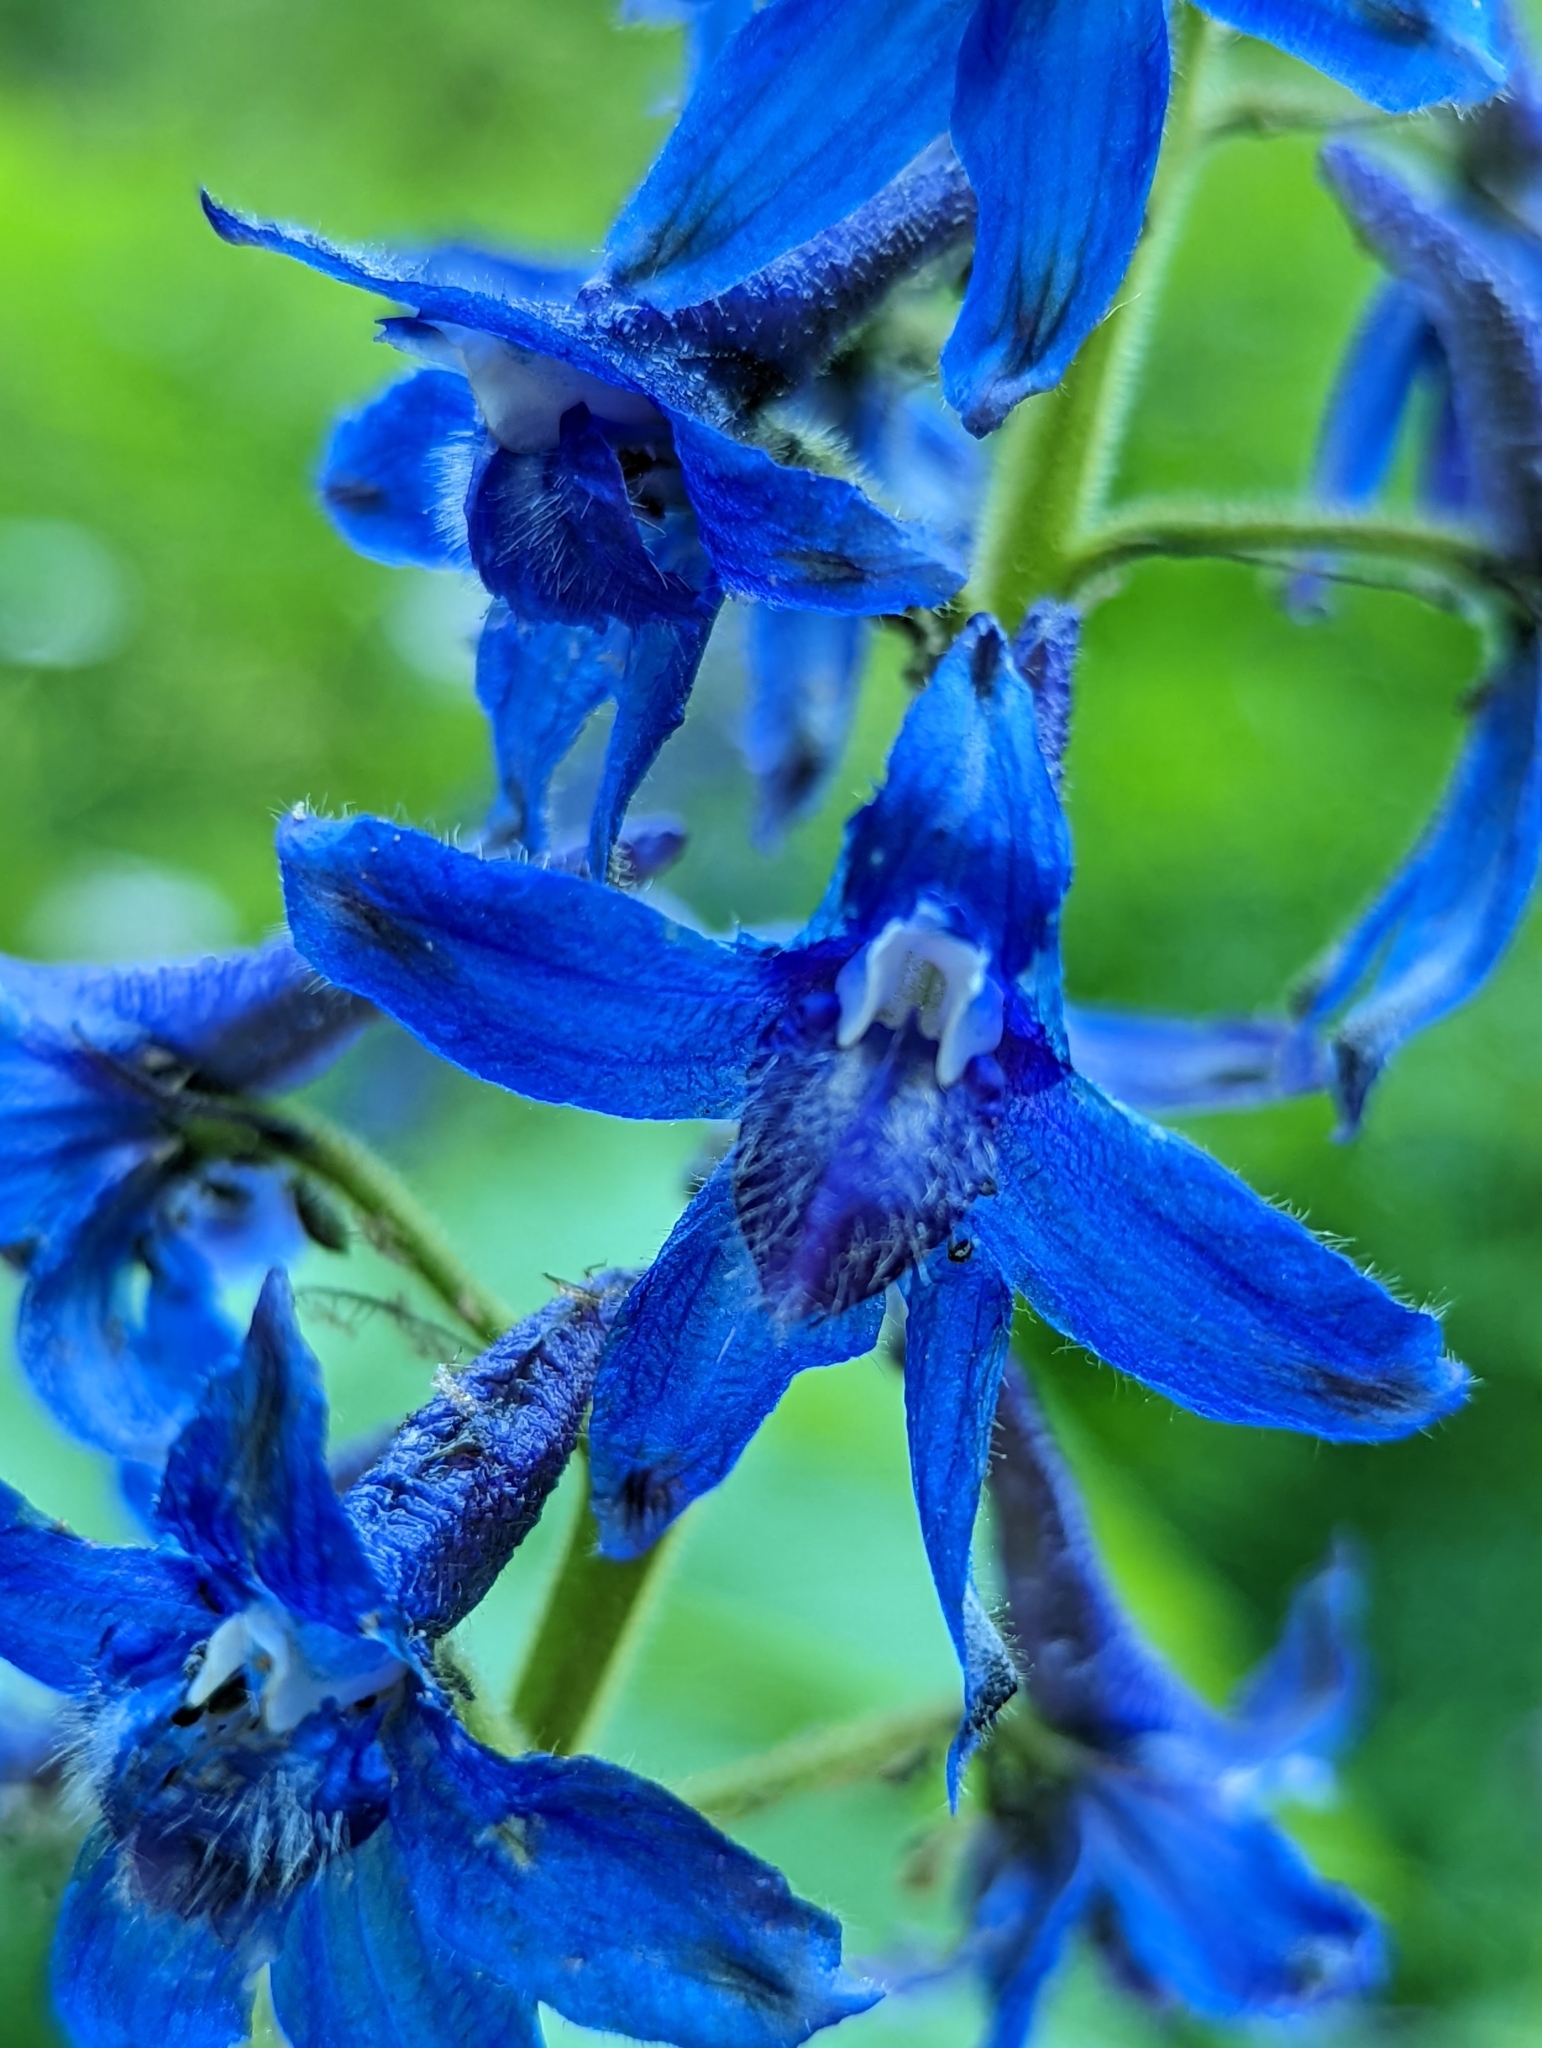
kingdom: Plantae
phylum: Tracheophyta
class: Magnoliopsida
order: Ranunculales
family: Ranunculaceae
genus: Delphinium
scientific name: Delphinium barbeyi
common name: Subalpine larkspur
